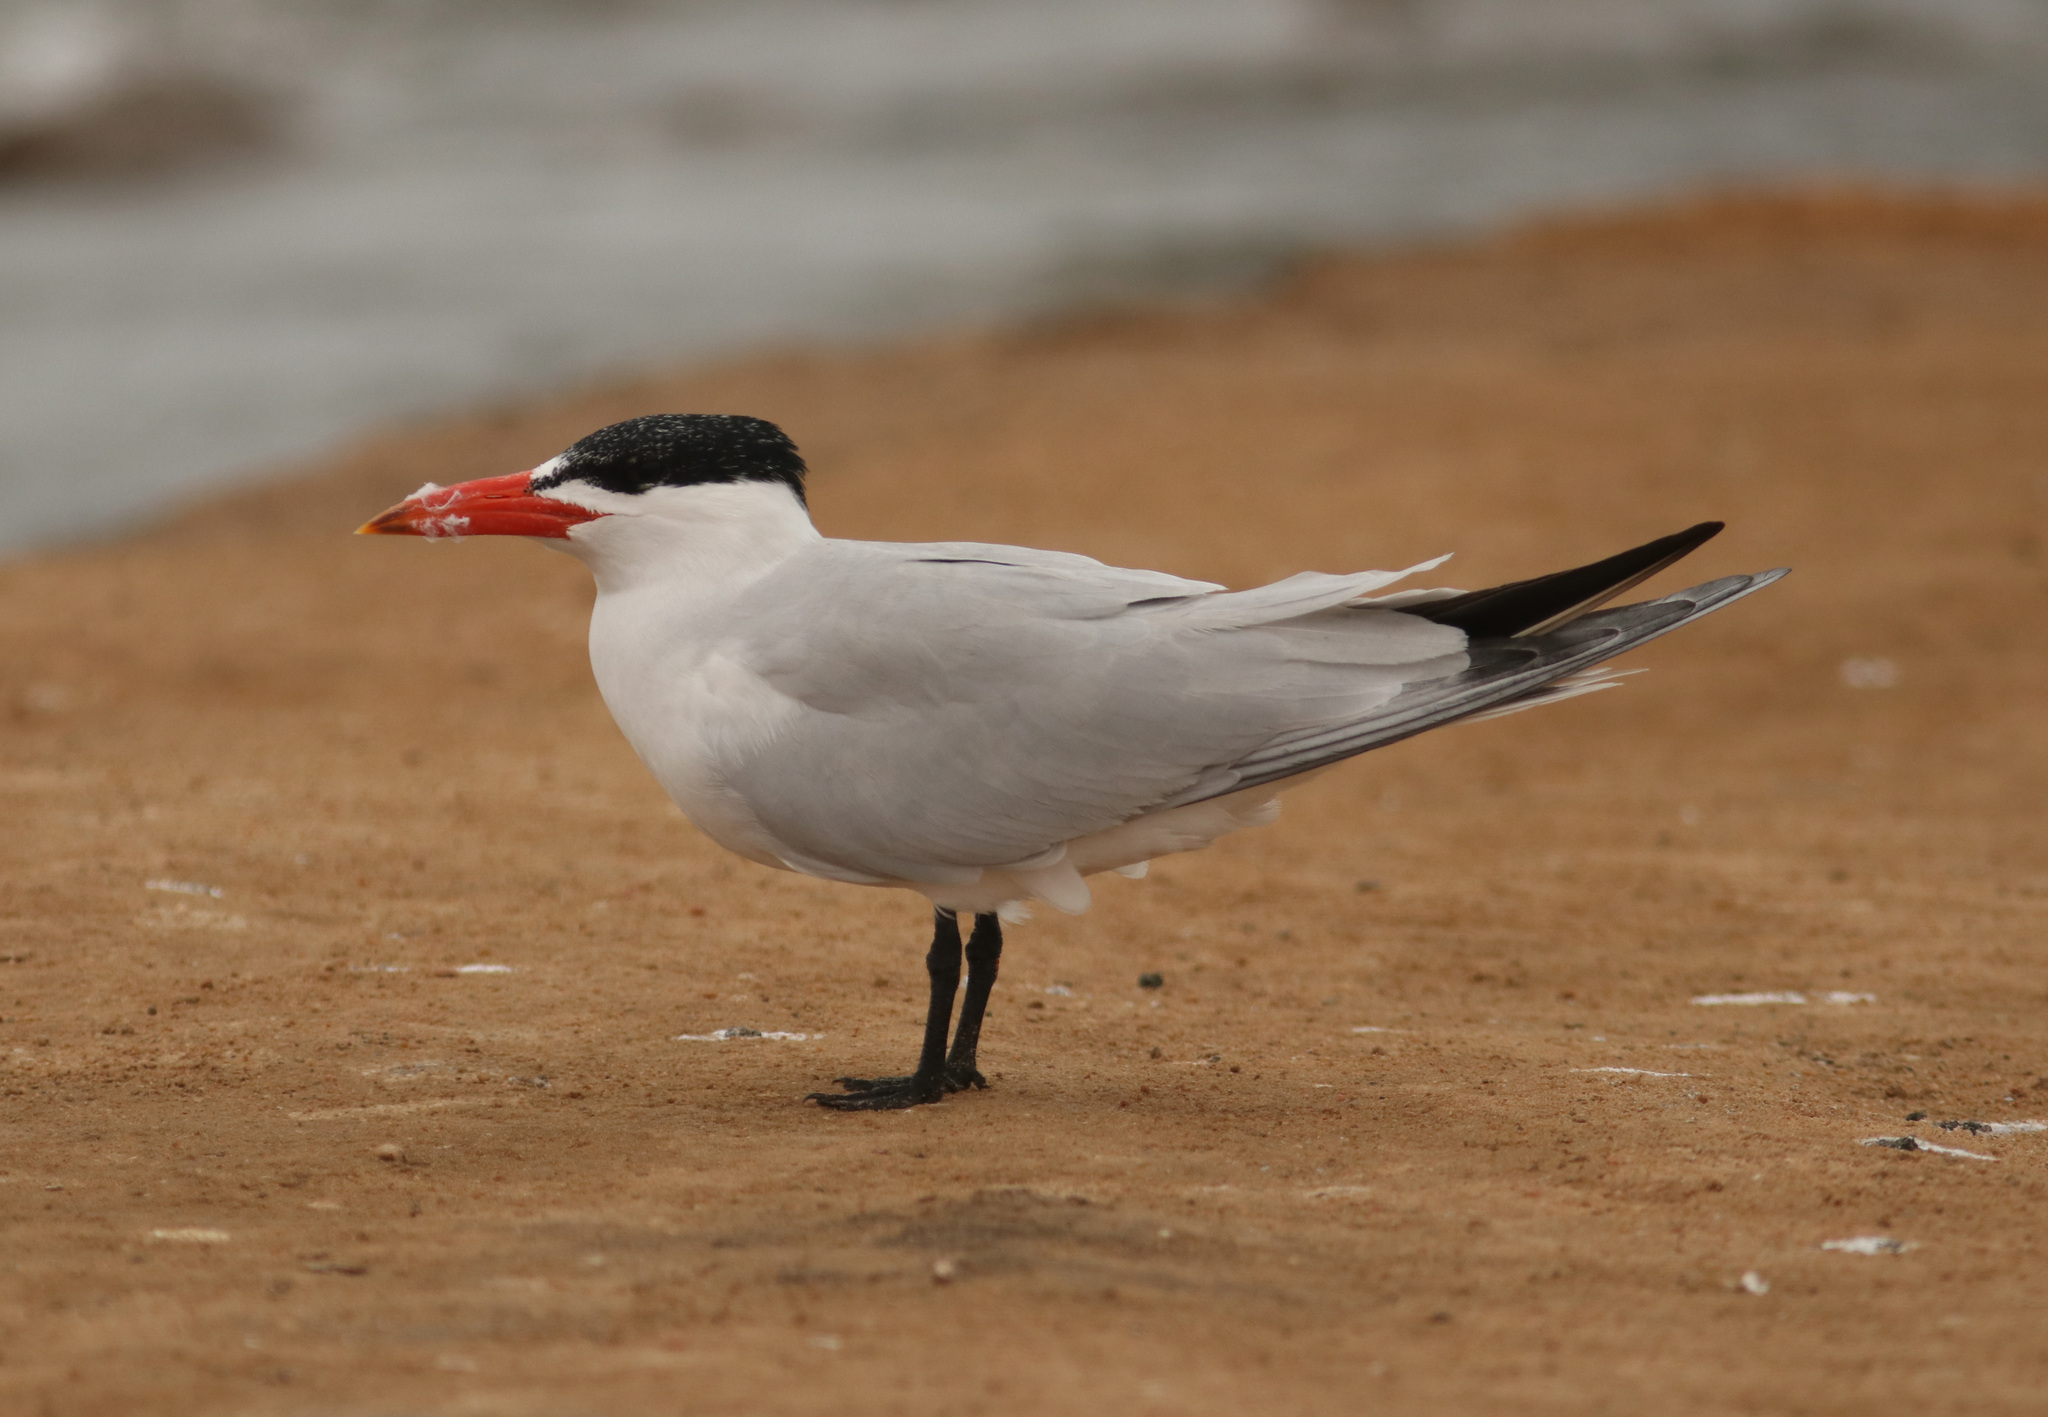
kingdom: Animalia
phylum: Chordata
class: Aves
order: Charadriiformes
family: Laridae
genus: Hydroprogne
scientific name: Hydroprogne caspia
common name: Caspian tern
